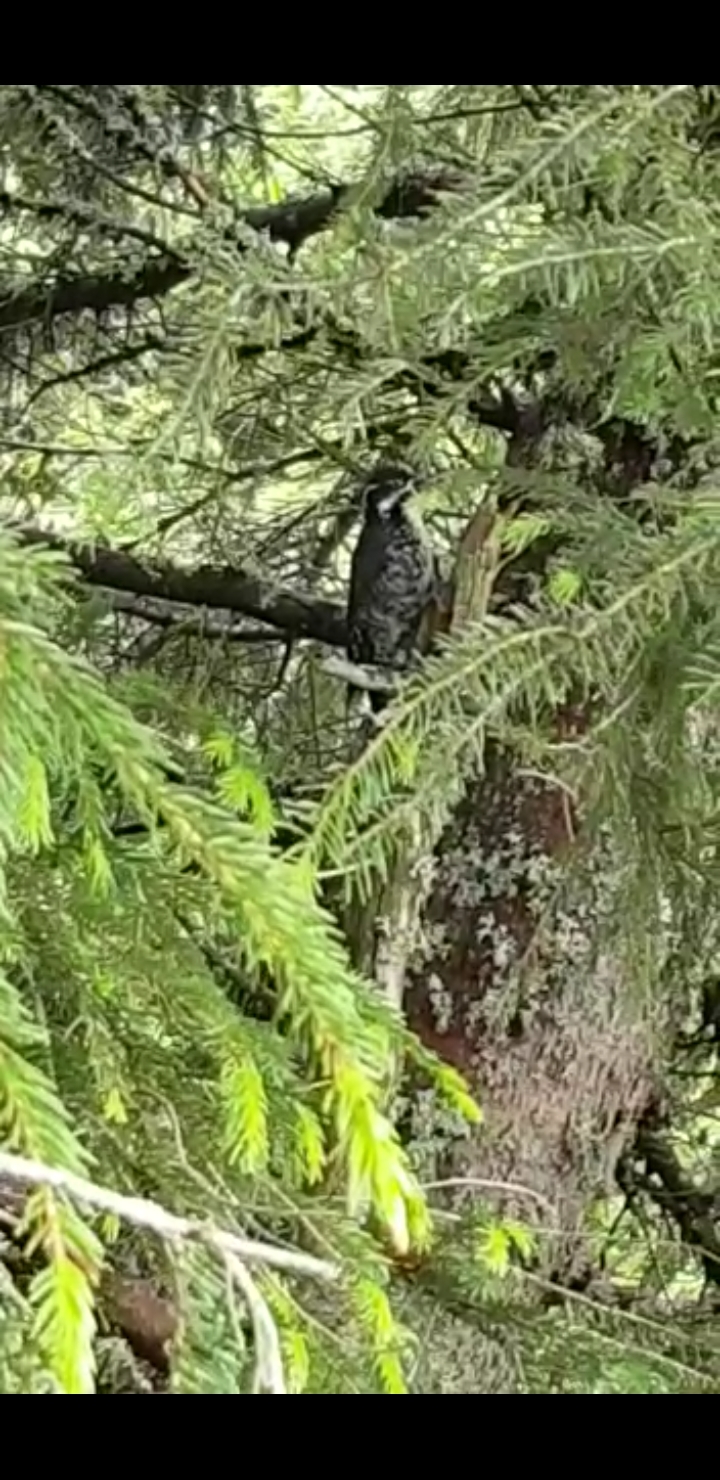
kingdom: Animalia
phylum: Chordata
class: Aves
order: Piciformes
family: Picidae
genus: Picoides
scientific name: Picoides tridactylus
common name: Eurasian three-toed woodpecker
